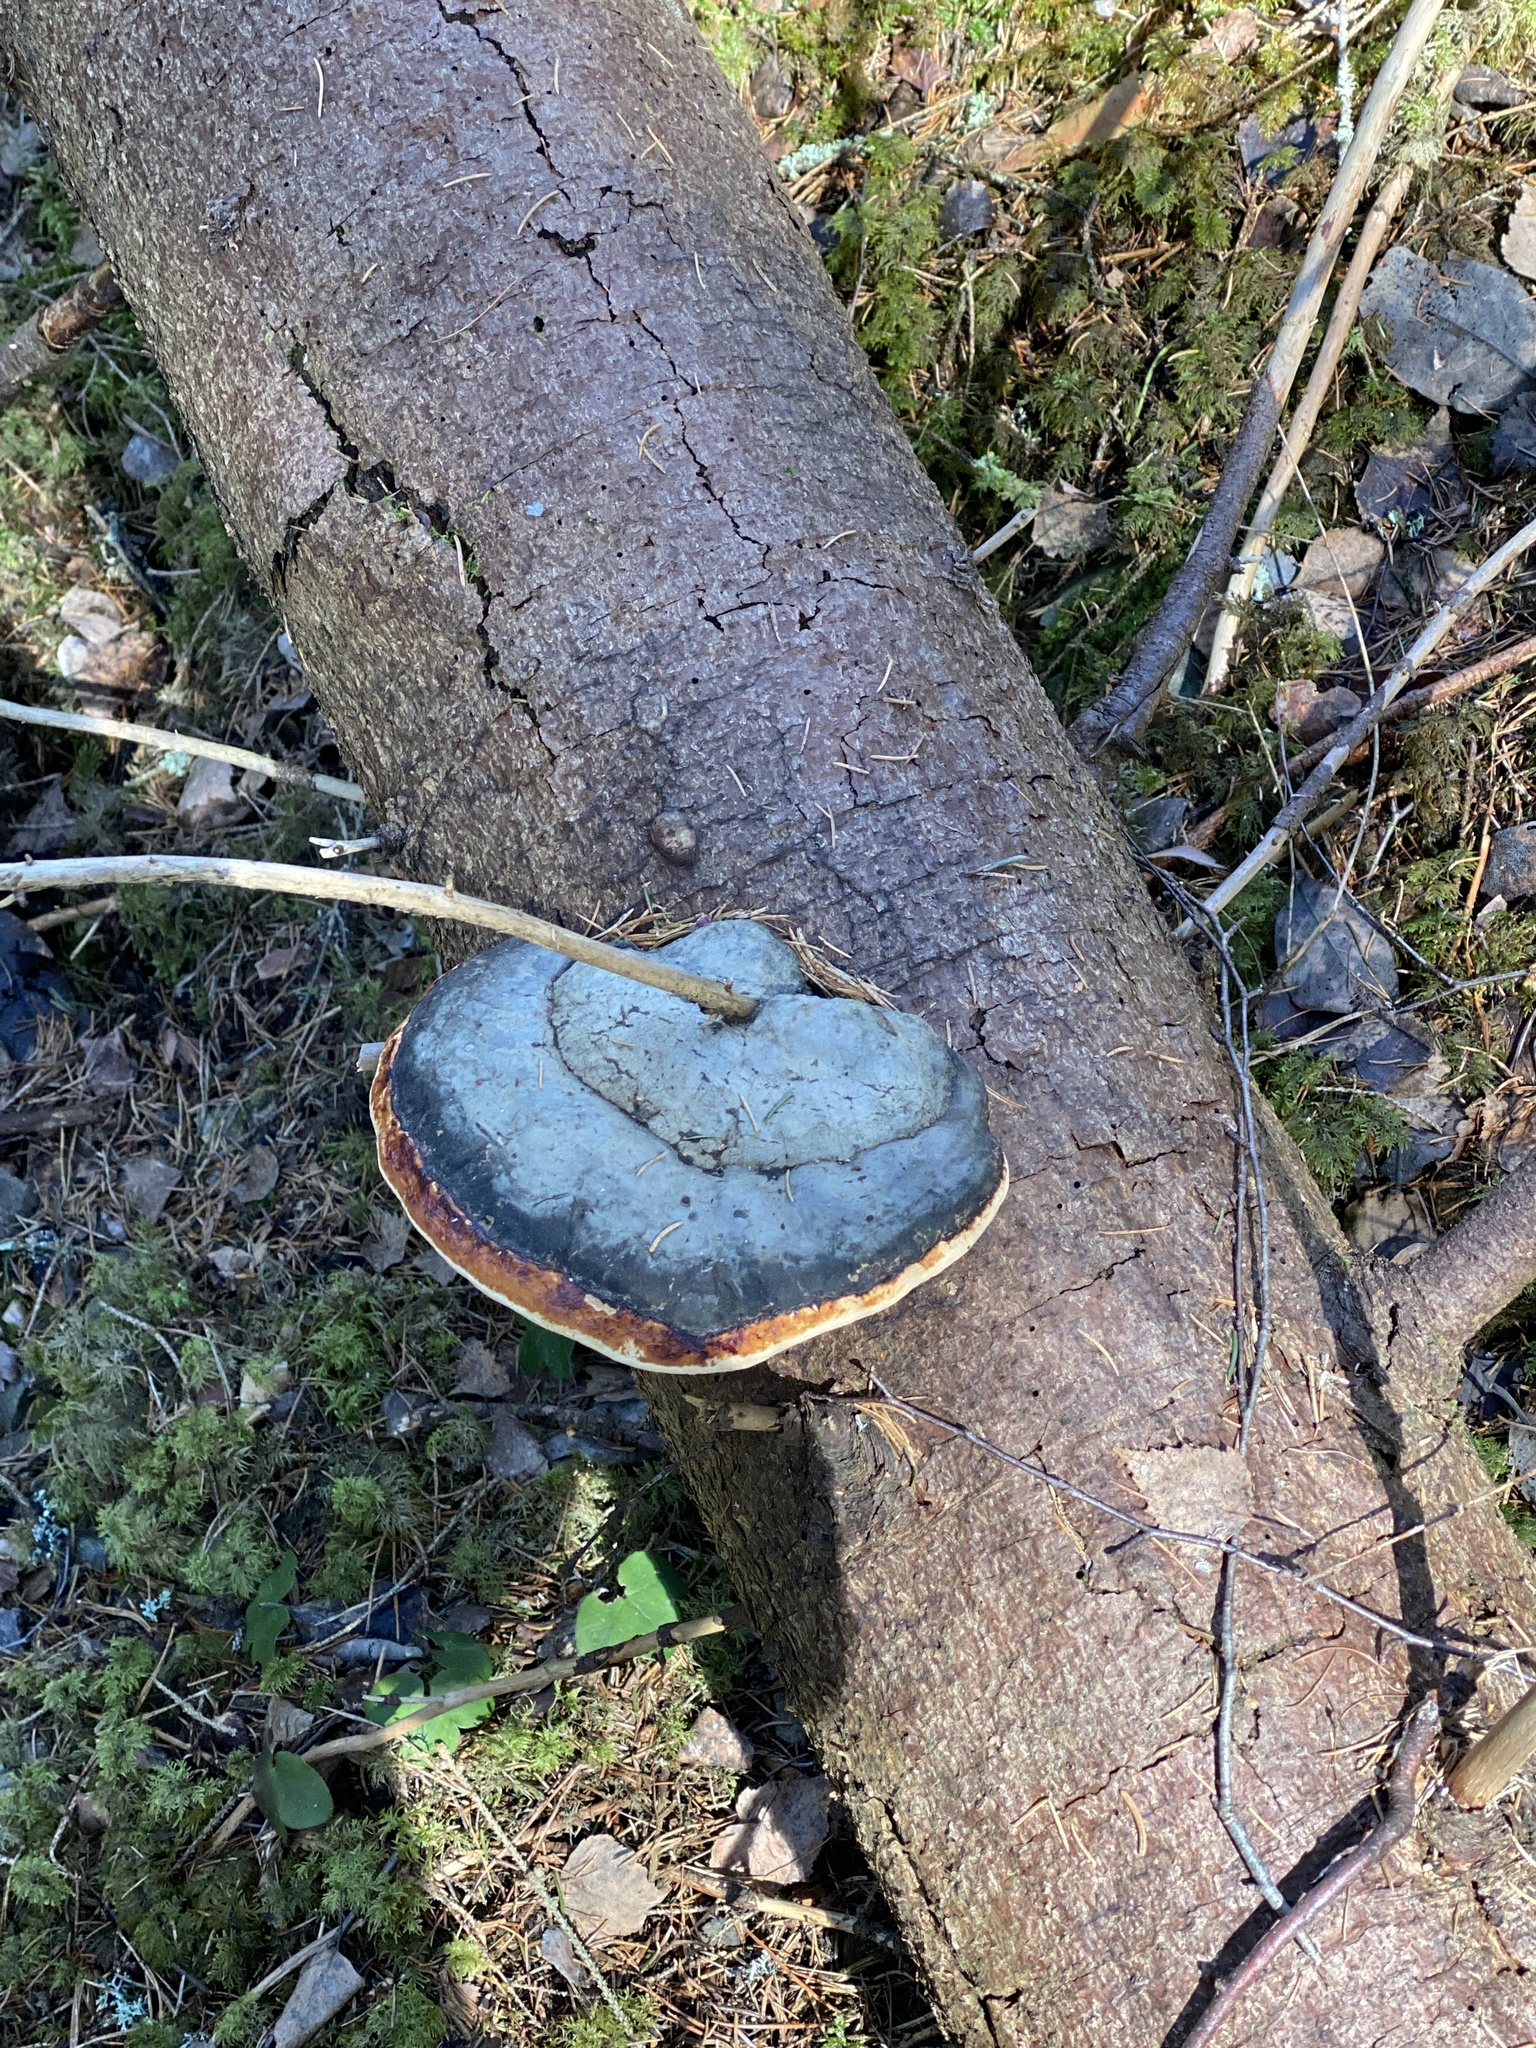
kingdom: Fungi
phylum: Basidiomycota
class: Agaricomycetes
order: Polyporales
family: Fomitopsidaceae
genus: Fomitopsis
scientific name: Fomitopsis pinicola
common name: Red-belted bracket
